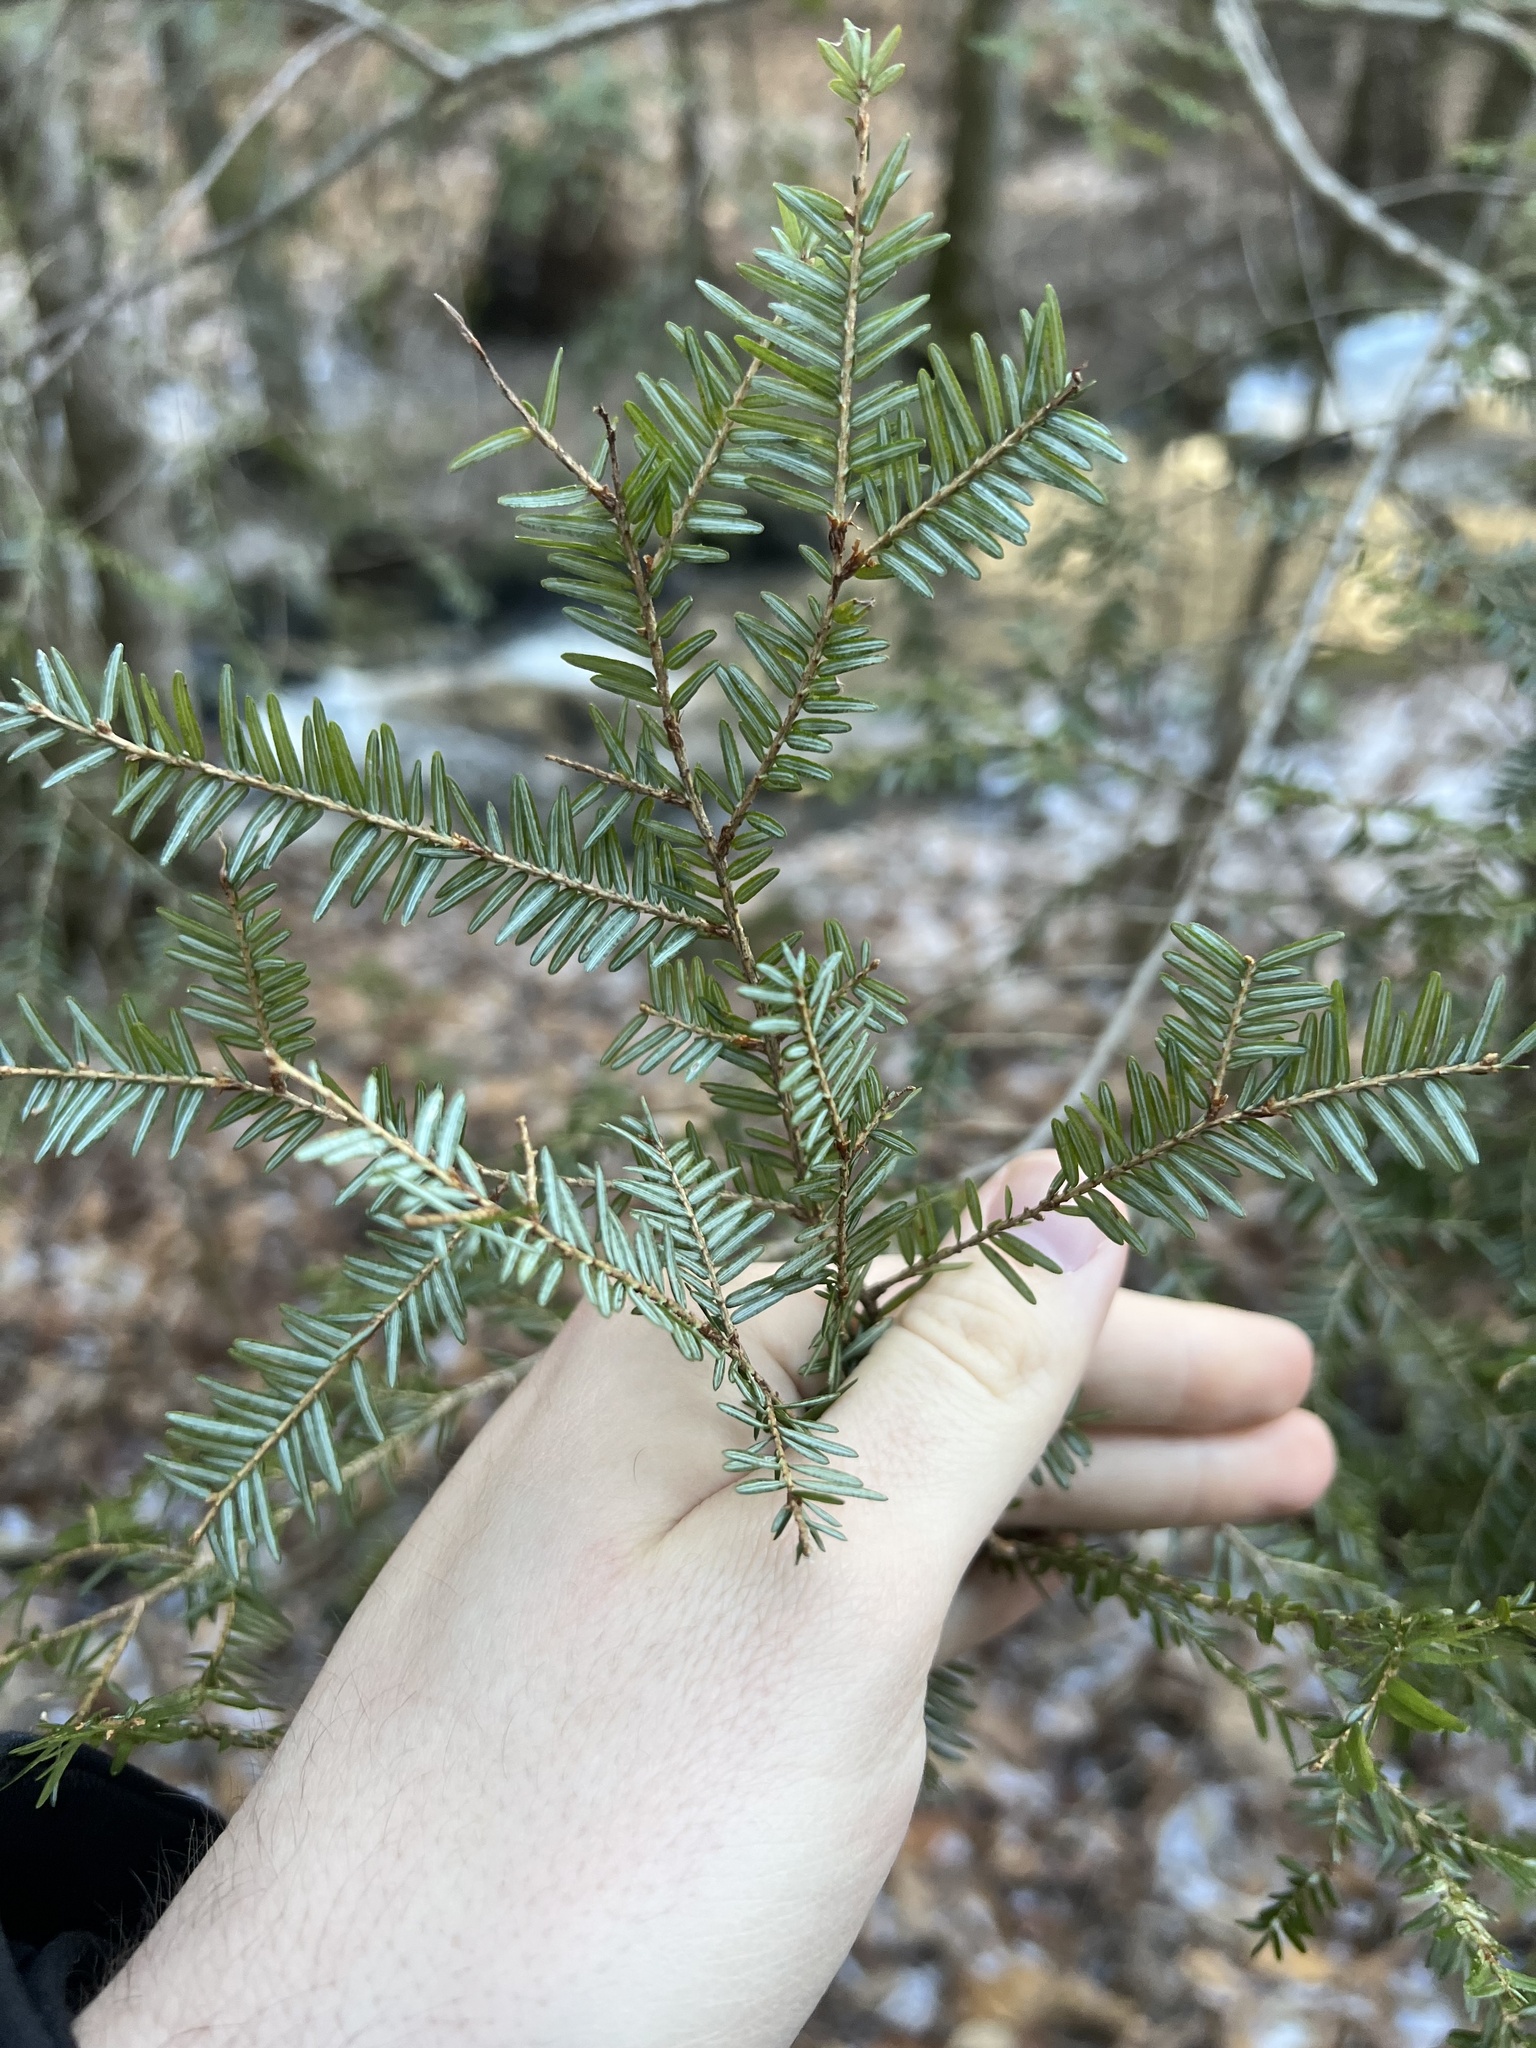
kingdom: Plantae
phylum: Tracheophyta
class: Pinopsida
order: Pinales
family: Pinaceae
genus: Tsuga
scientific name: Tsuga canadensis
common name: Eastern hemlock
